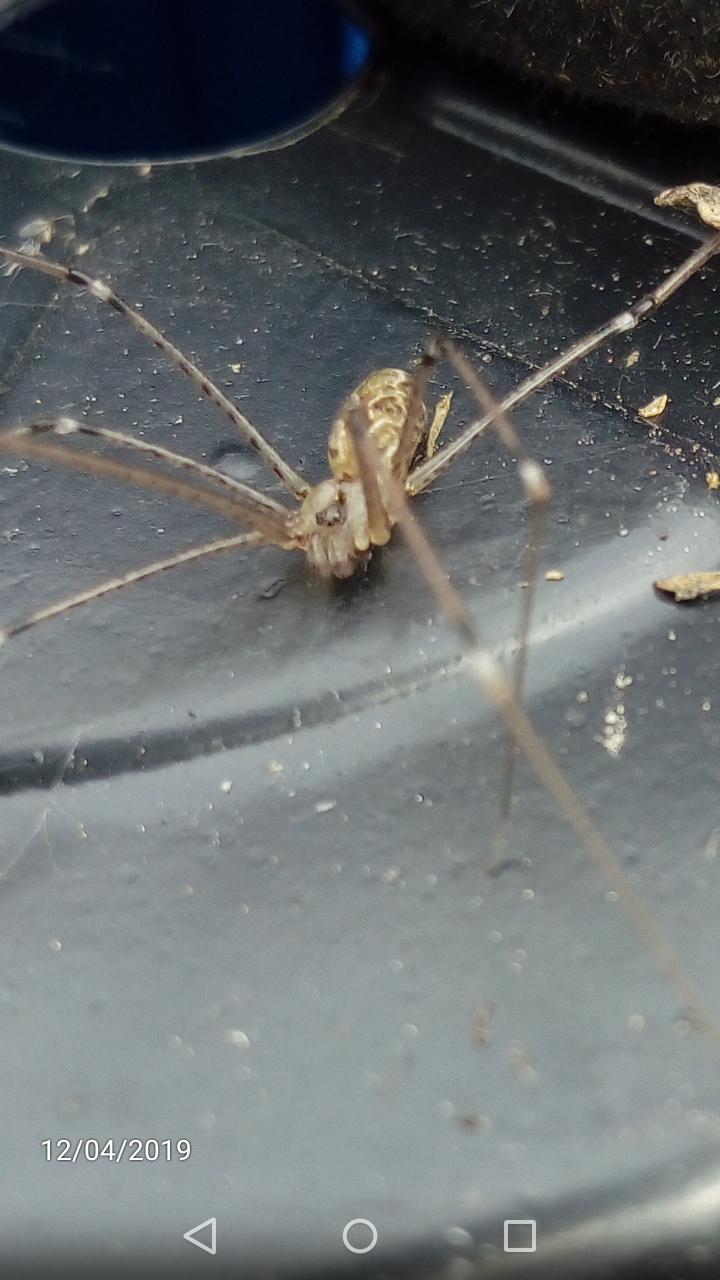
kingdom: Animalia
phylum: Arthropoda
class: Arachnida
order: Araneae
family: Pholcidae
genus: Holocnemus
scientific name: Holocnemus pluchei
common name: Marbled cellar spider
